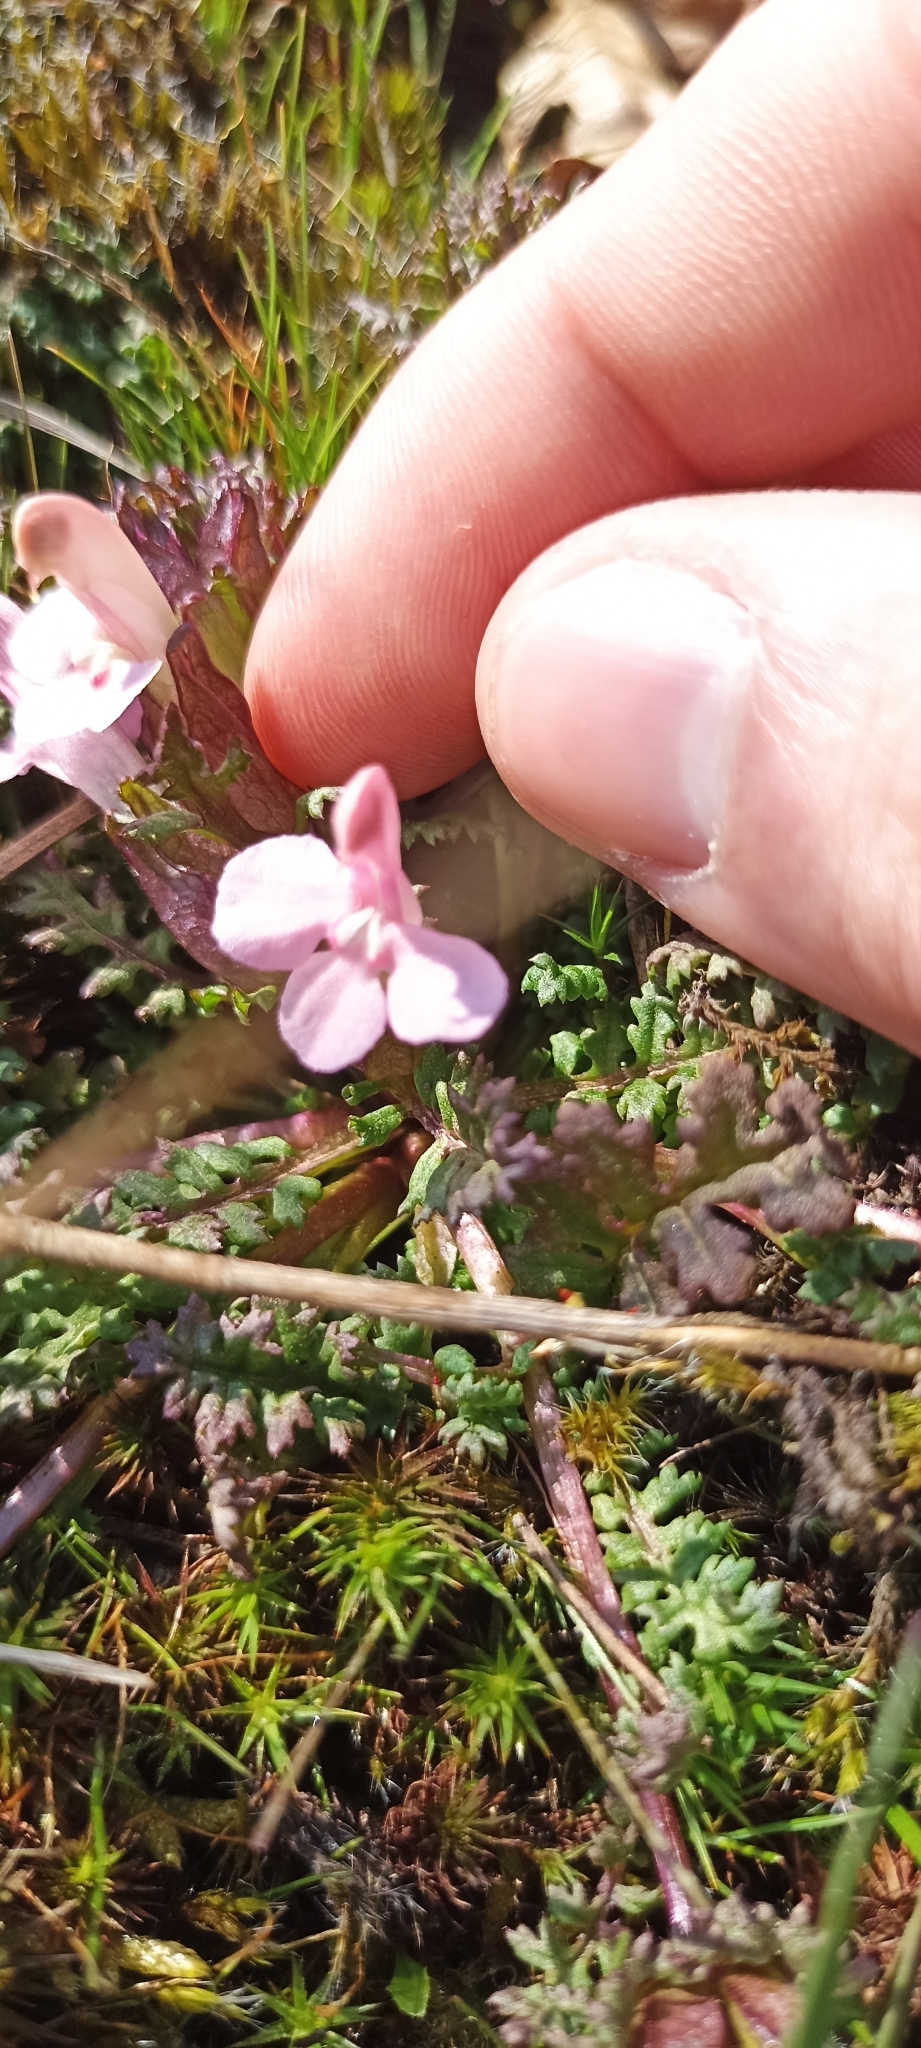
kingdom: Plantae
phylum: Tracheophyta
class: Magnoliopsida
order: Lamiales
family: Orobanchaceae
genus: Pedicularis
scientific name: Pedicularis sylvatica
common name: Lousewort
